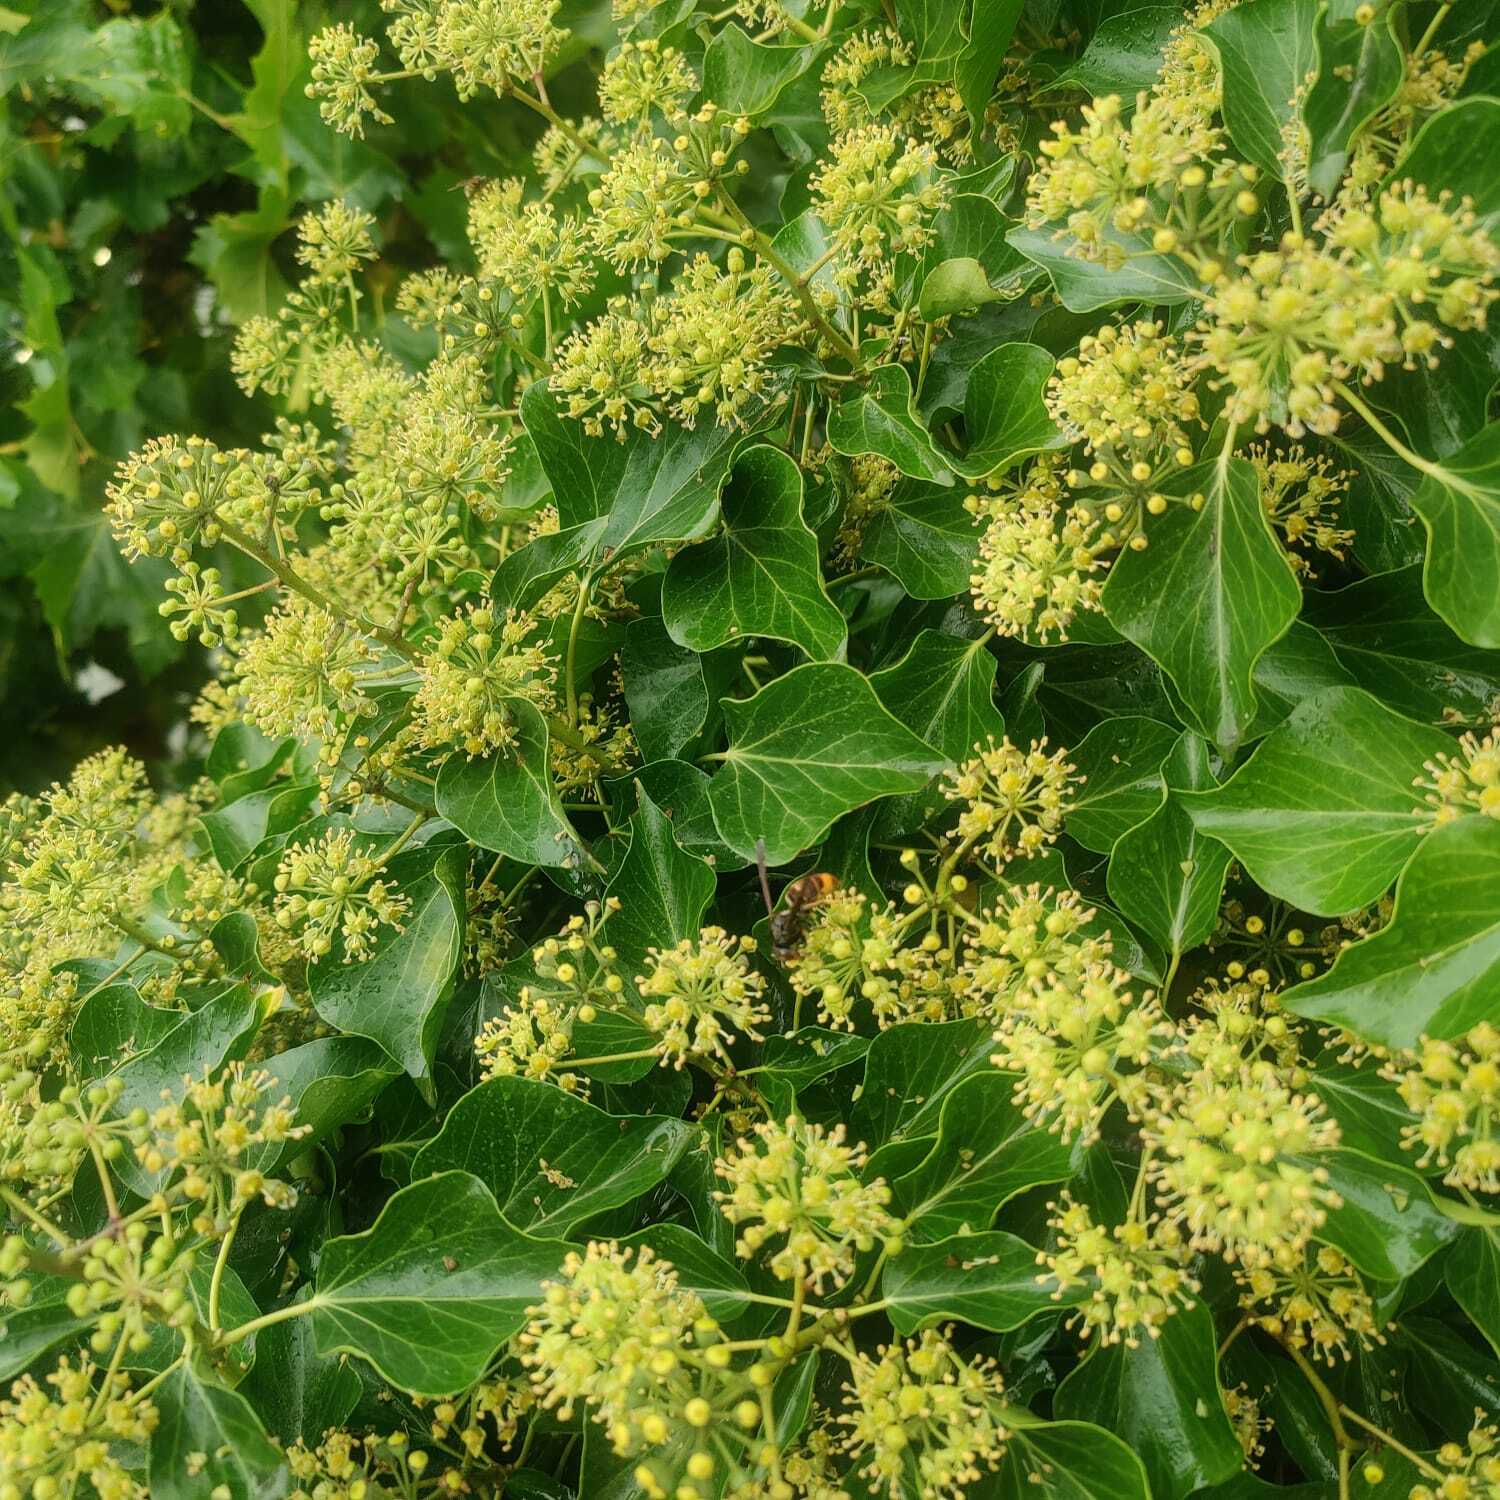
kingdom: Animalia
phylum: Arthropoda
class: Insecta
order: Hymenoptera
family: Vespidae
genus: Vespa
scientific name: Vespa velutina
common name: Asian hornet
